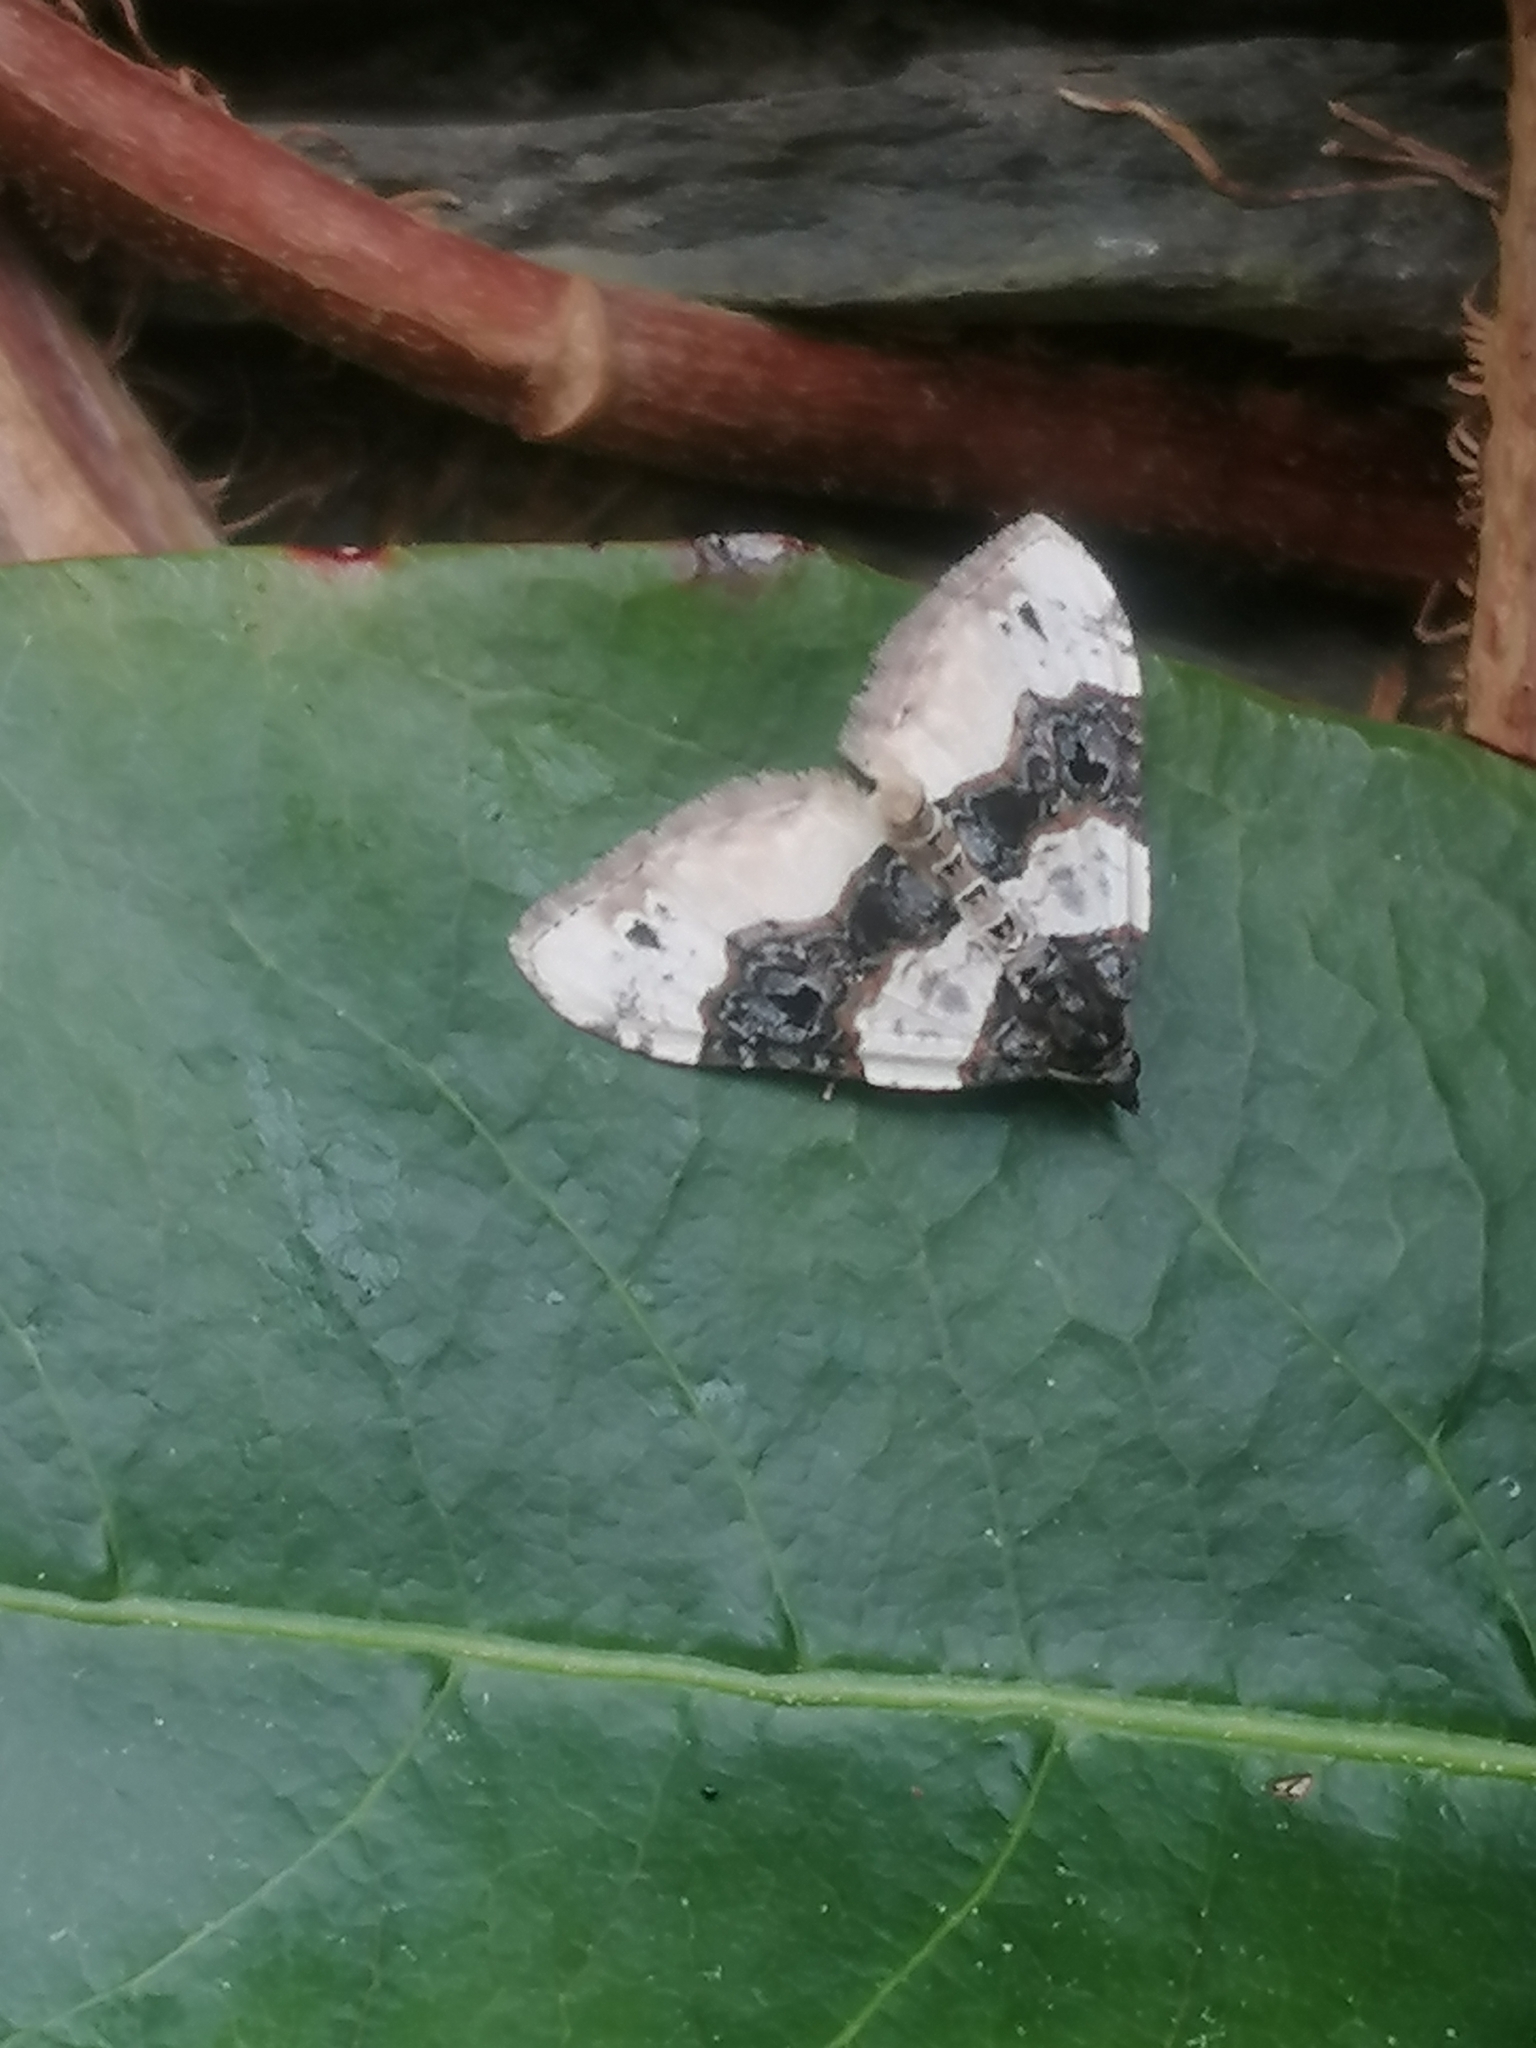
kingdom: Animalia
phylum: Arthropoda
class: Insecta
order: Lepidoptera
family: Geometridae
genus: Cosmorhoe
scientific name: Cosmorhoe ocellata
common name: Purple bar
